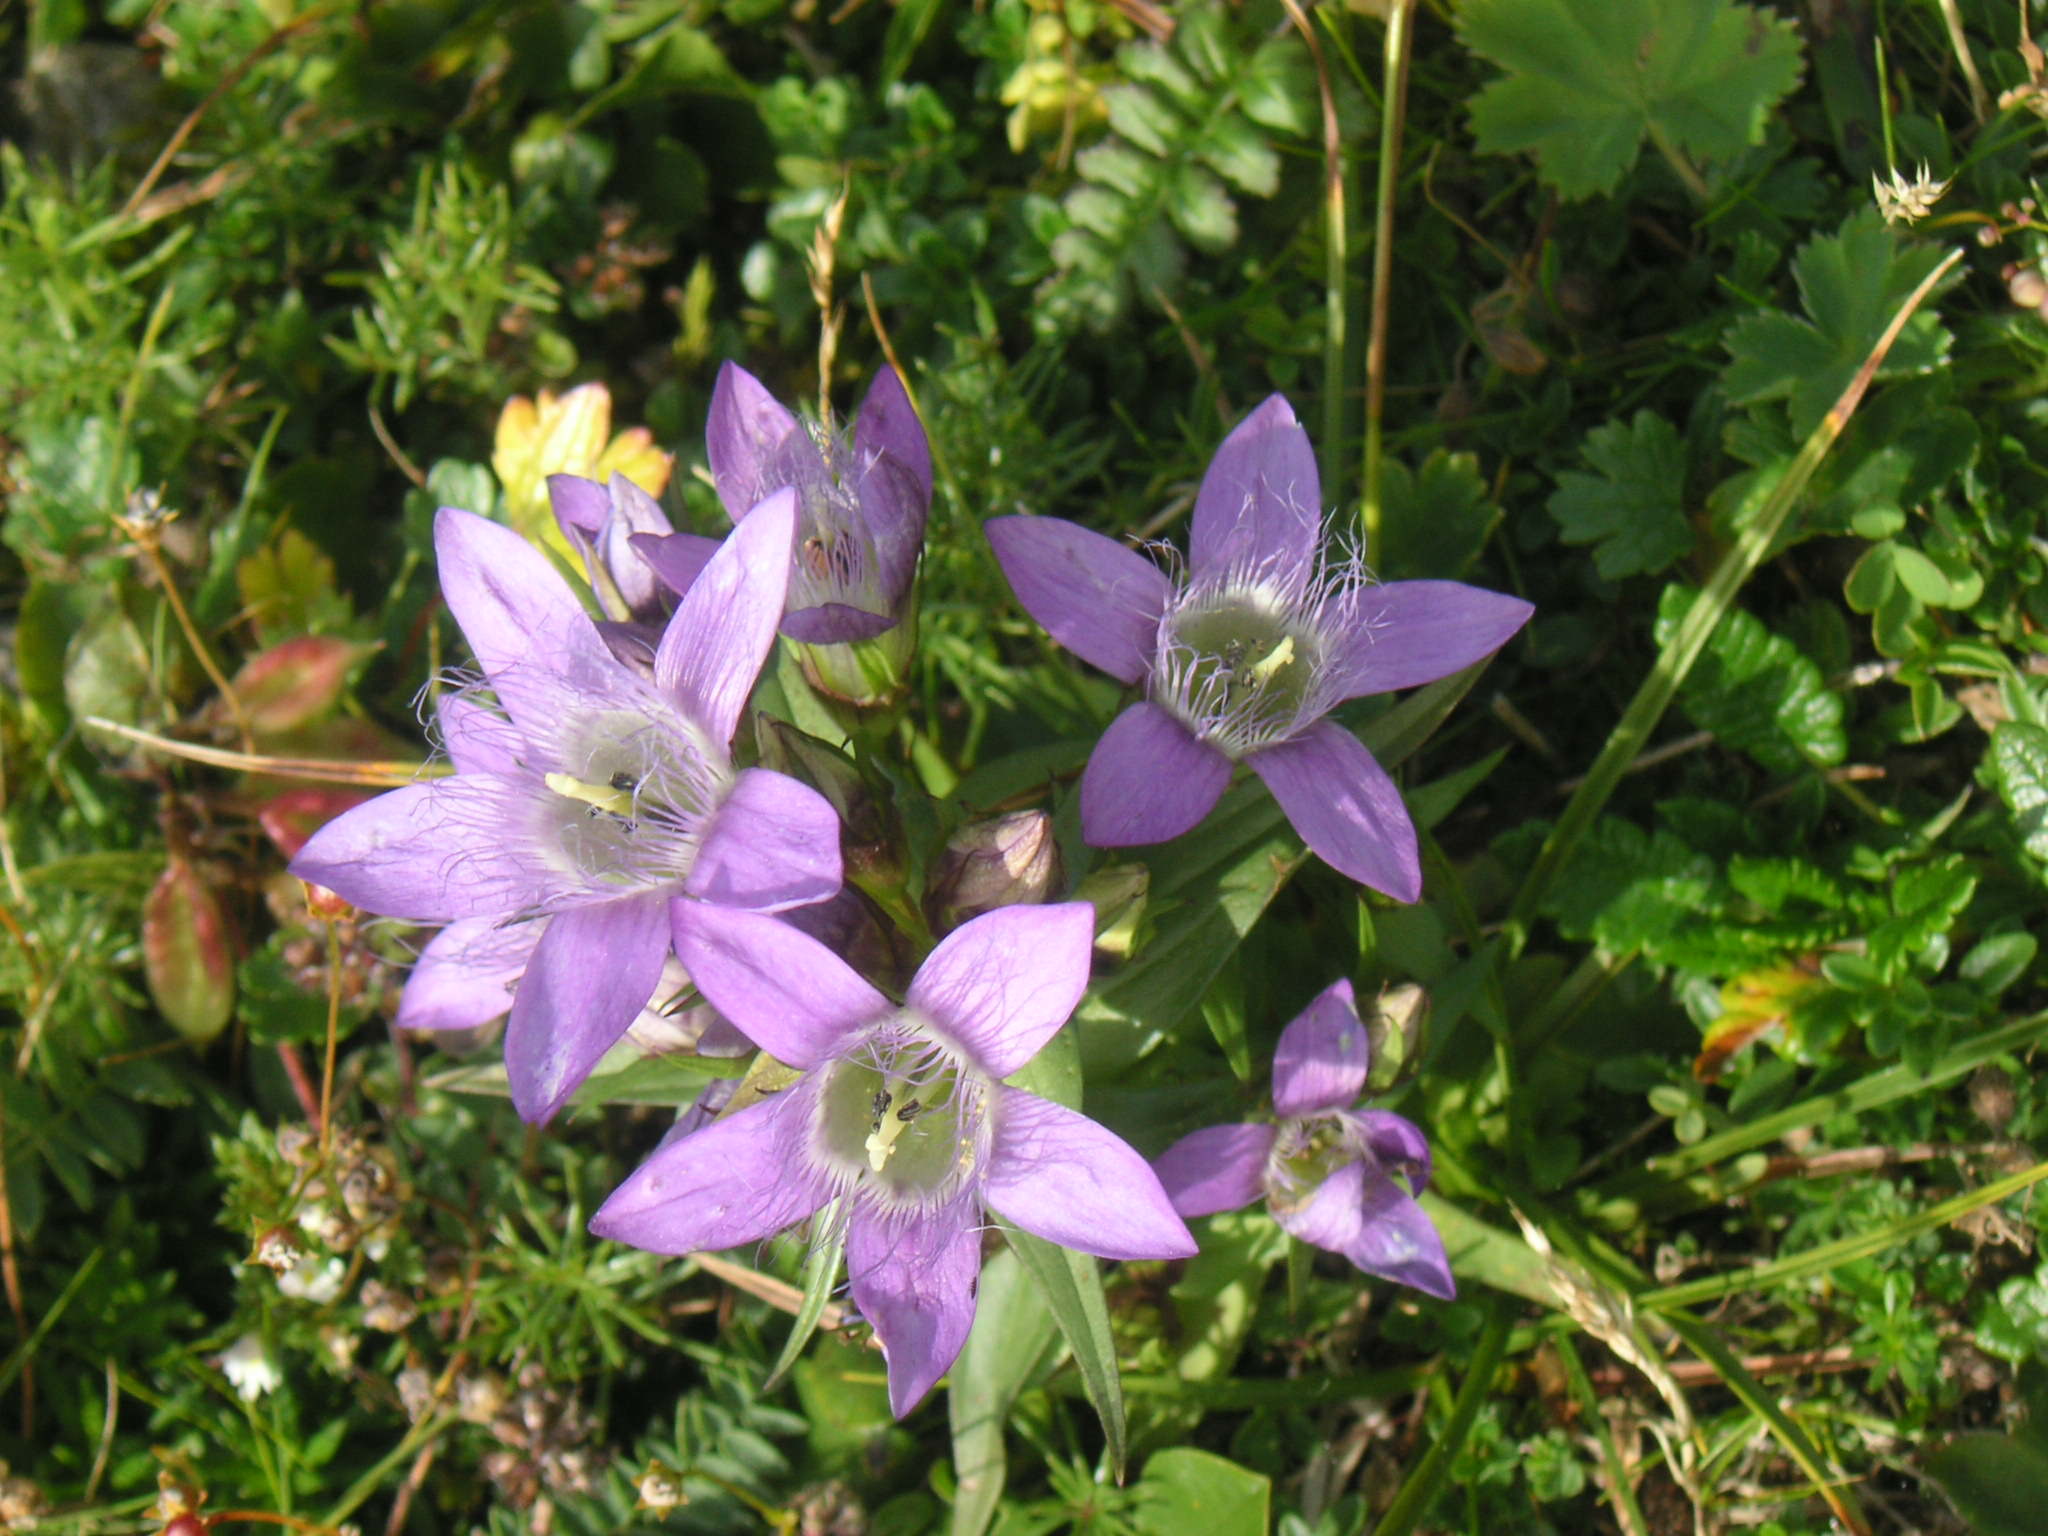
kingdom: Plantae
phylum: Tracheophyta
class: Magnoliopsida
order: Gentianales
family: Gentianaceae
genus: Gentianella
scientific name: Gentianella austriaca
